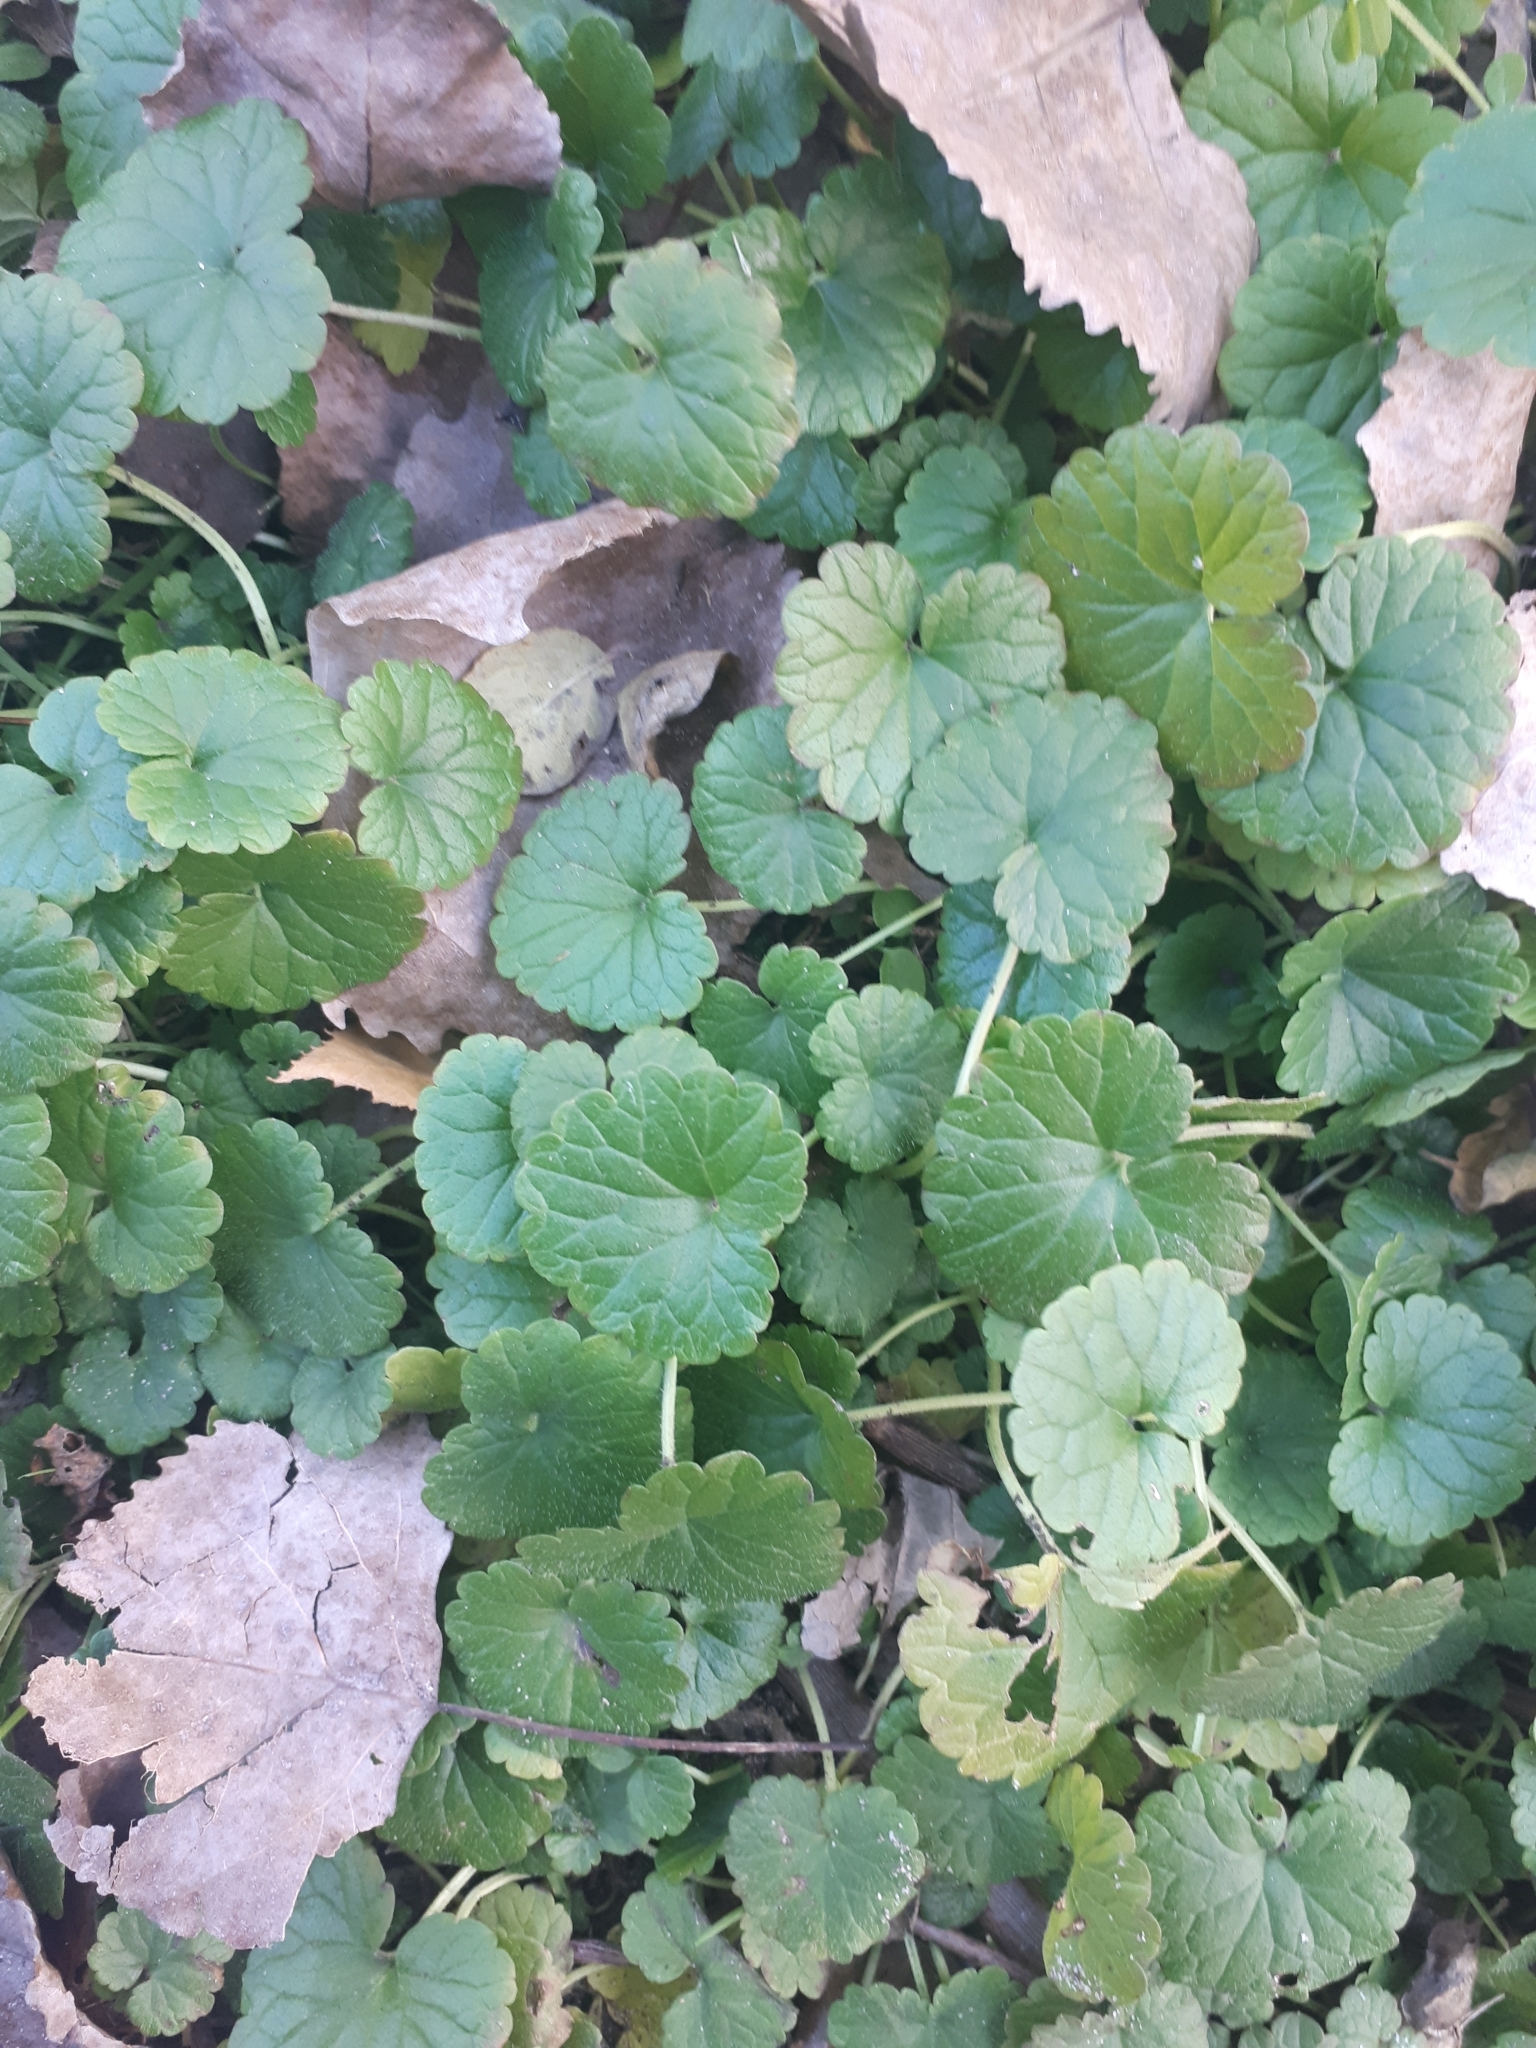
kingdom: Plantae
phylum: Tracheophyta
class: Magnoliopsida
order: Lamiales
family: Lamiaceae
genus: Glechoma
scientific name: Glechoma hederacea
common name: Ground ivy
